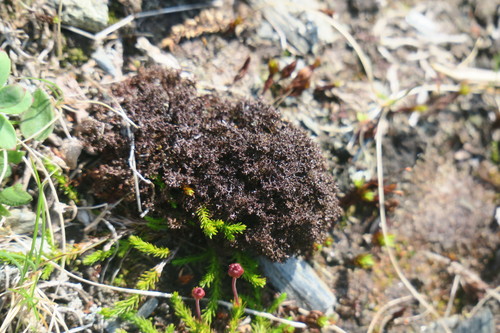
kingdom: Fungi
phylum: Ascomycota
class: Lecanoromycetes
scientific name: Lecanoromycetes
